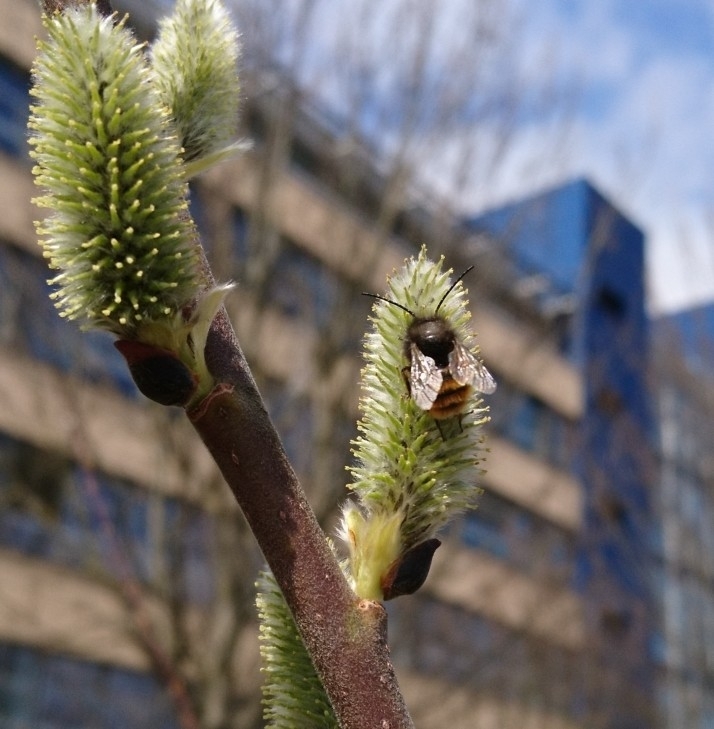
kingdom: Animalia
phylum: Arthropoda
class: Insecta
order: Hymenoptera
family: Megachilidae
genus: Osmia
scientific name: Osmia cornuta
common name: Mason bee
